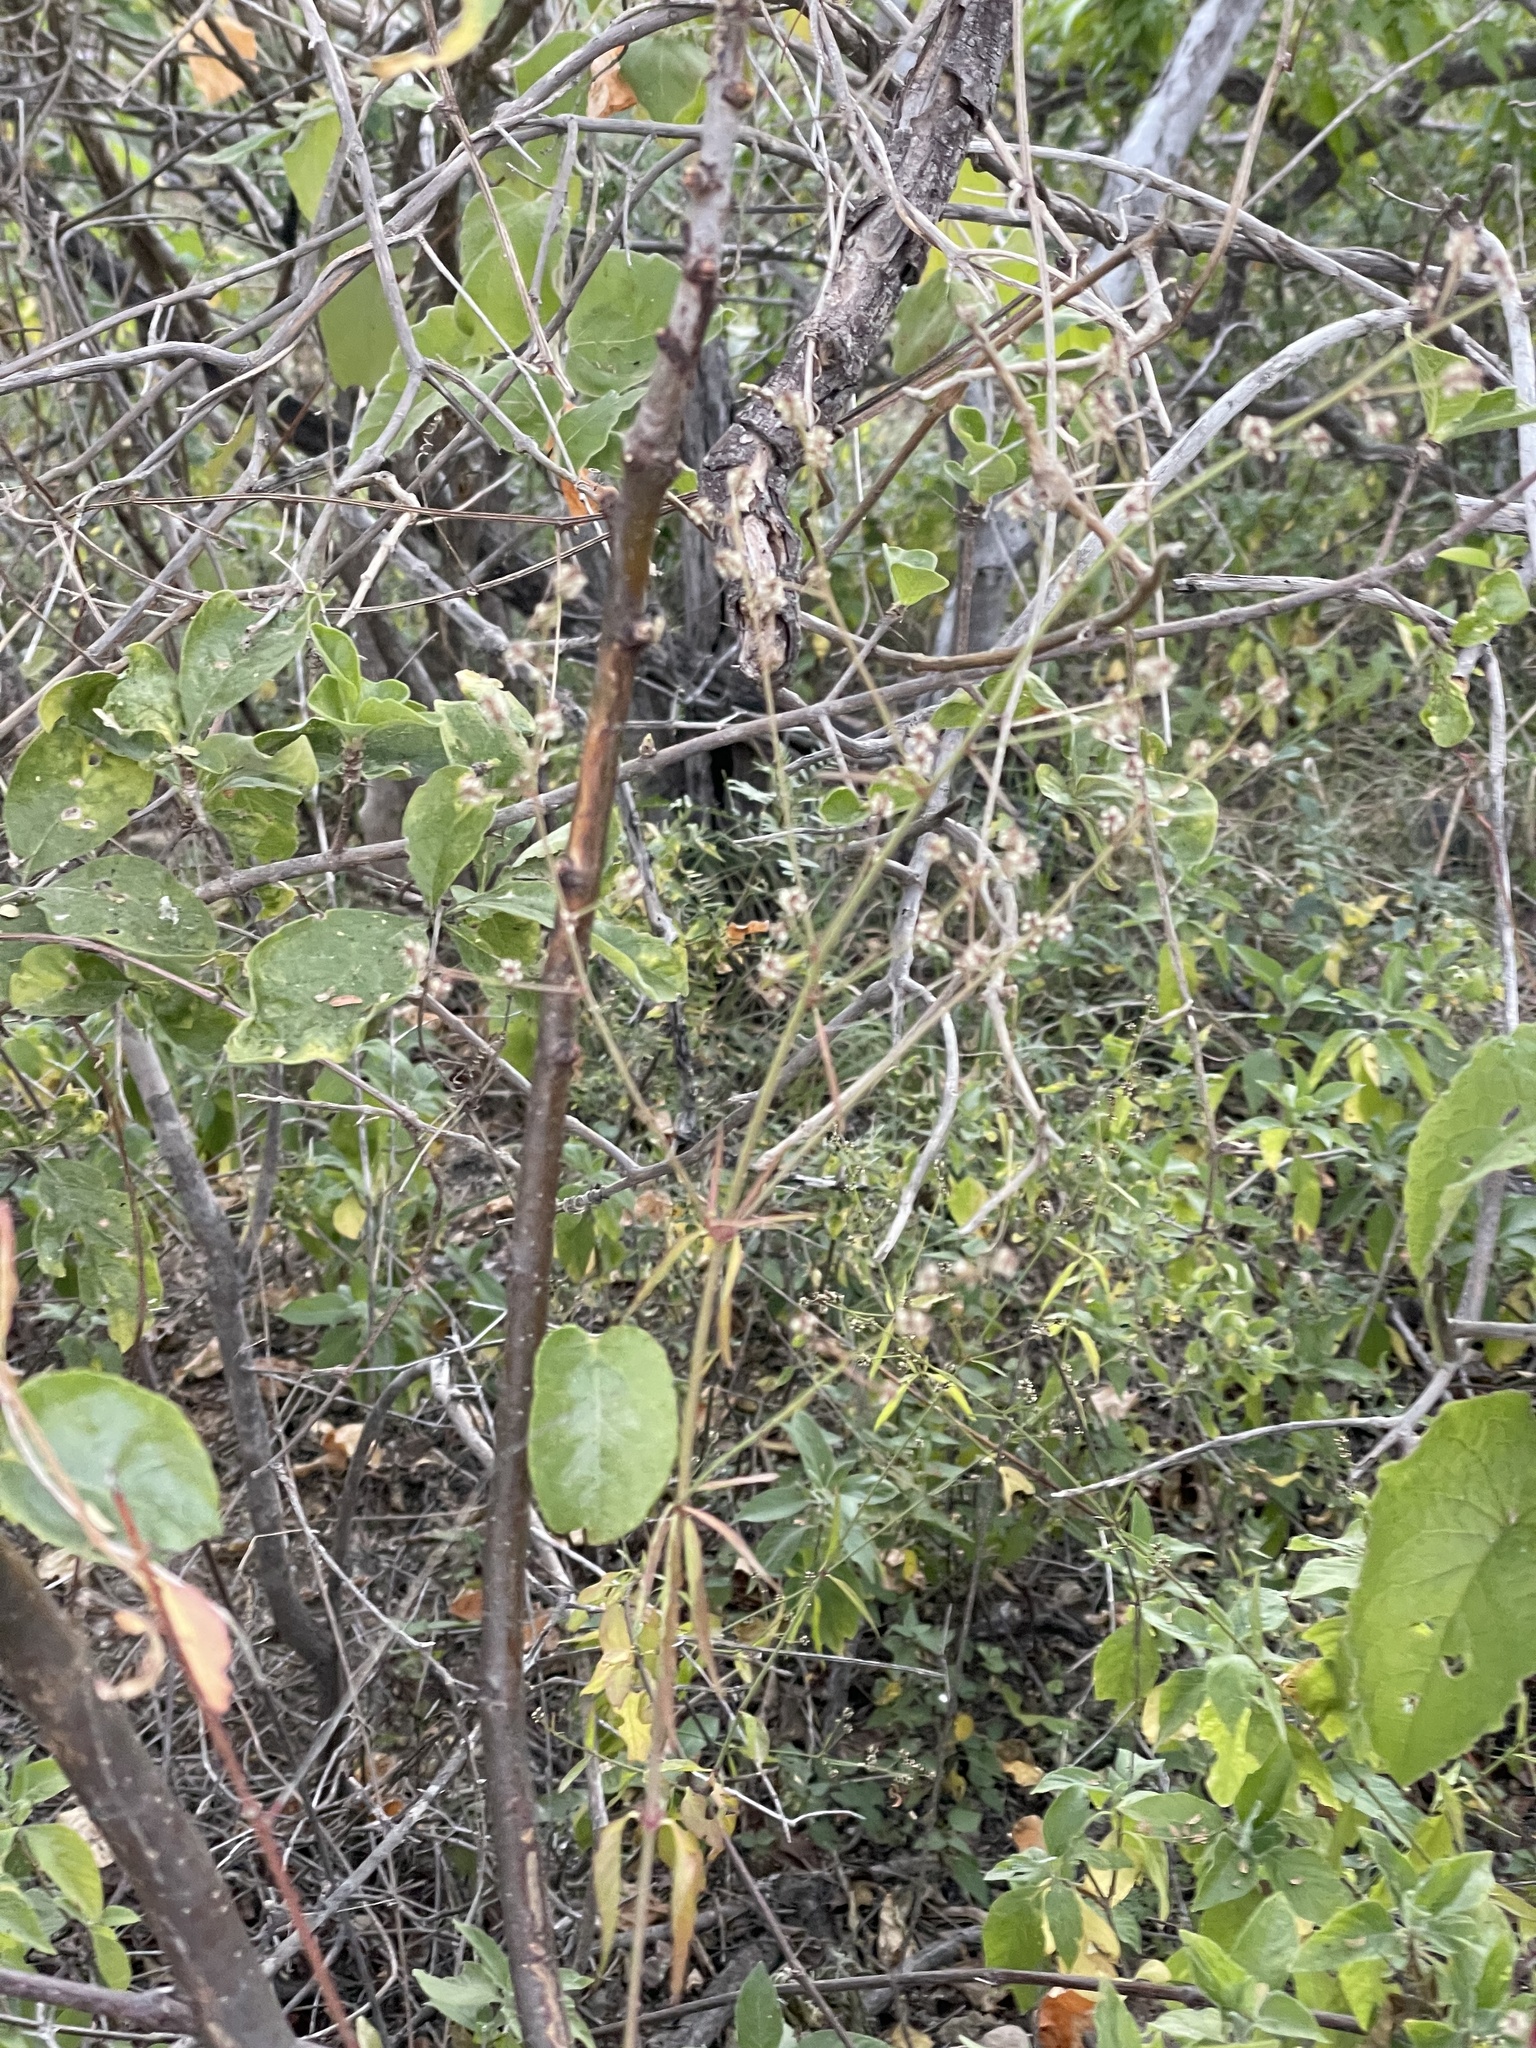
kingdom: Plantae
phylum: Tracheophyta
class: Magnoliopsida
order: Caryophyllales
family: Amaranthaceae
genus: Froelichia
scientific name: Froelichia xantusii
